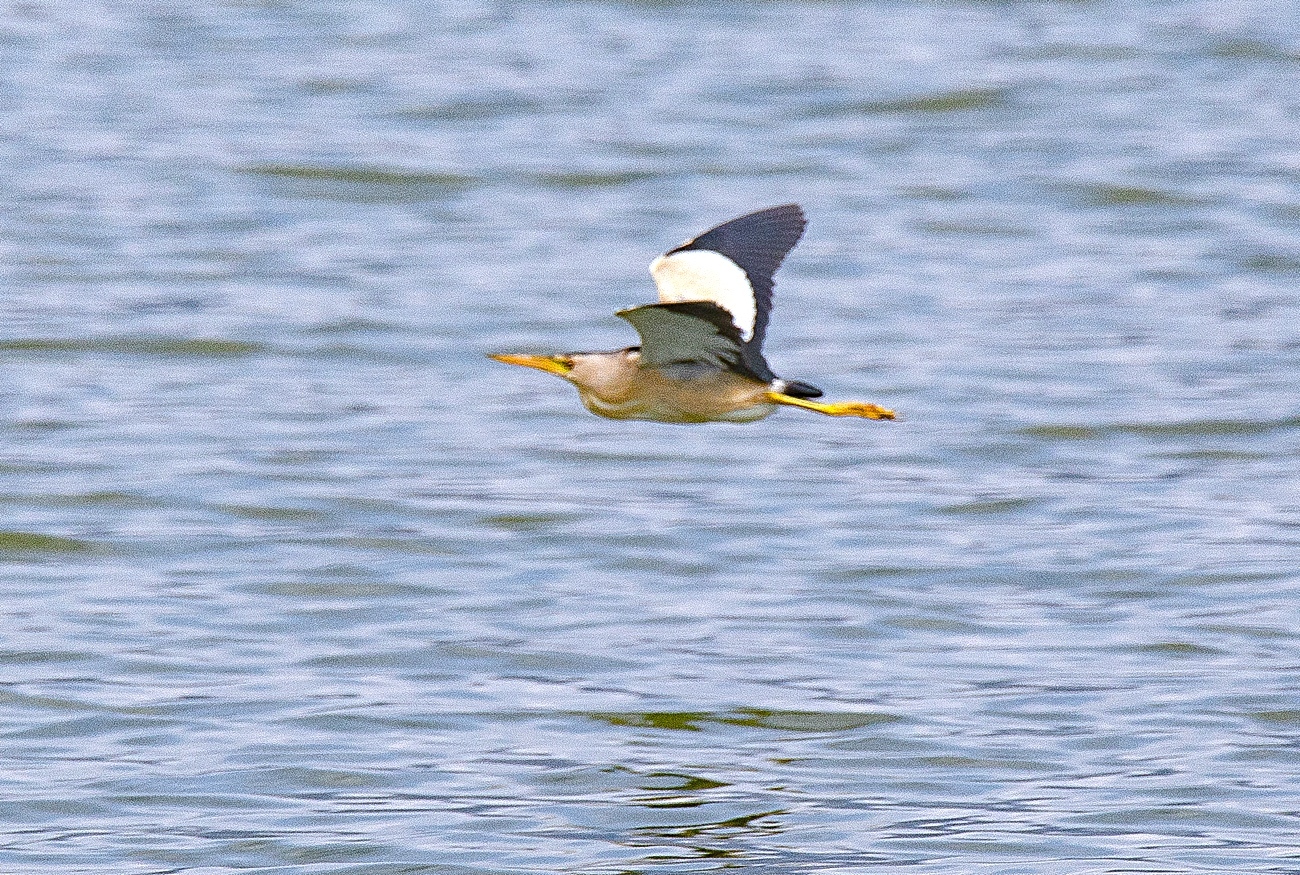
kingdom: Animalia
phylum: Chordata
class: Aves
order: Pelecaniformes
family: Ardeidae
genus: Ixobrychus
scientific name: Ixobrychus minutus
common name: Little bittern
